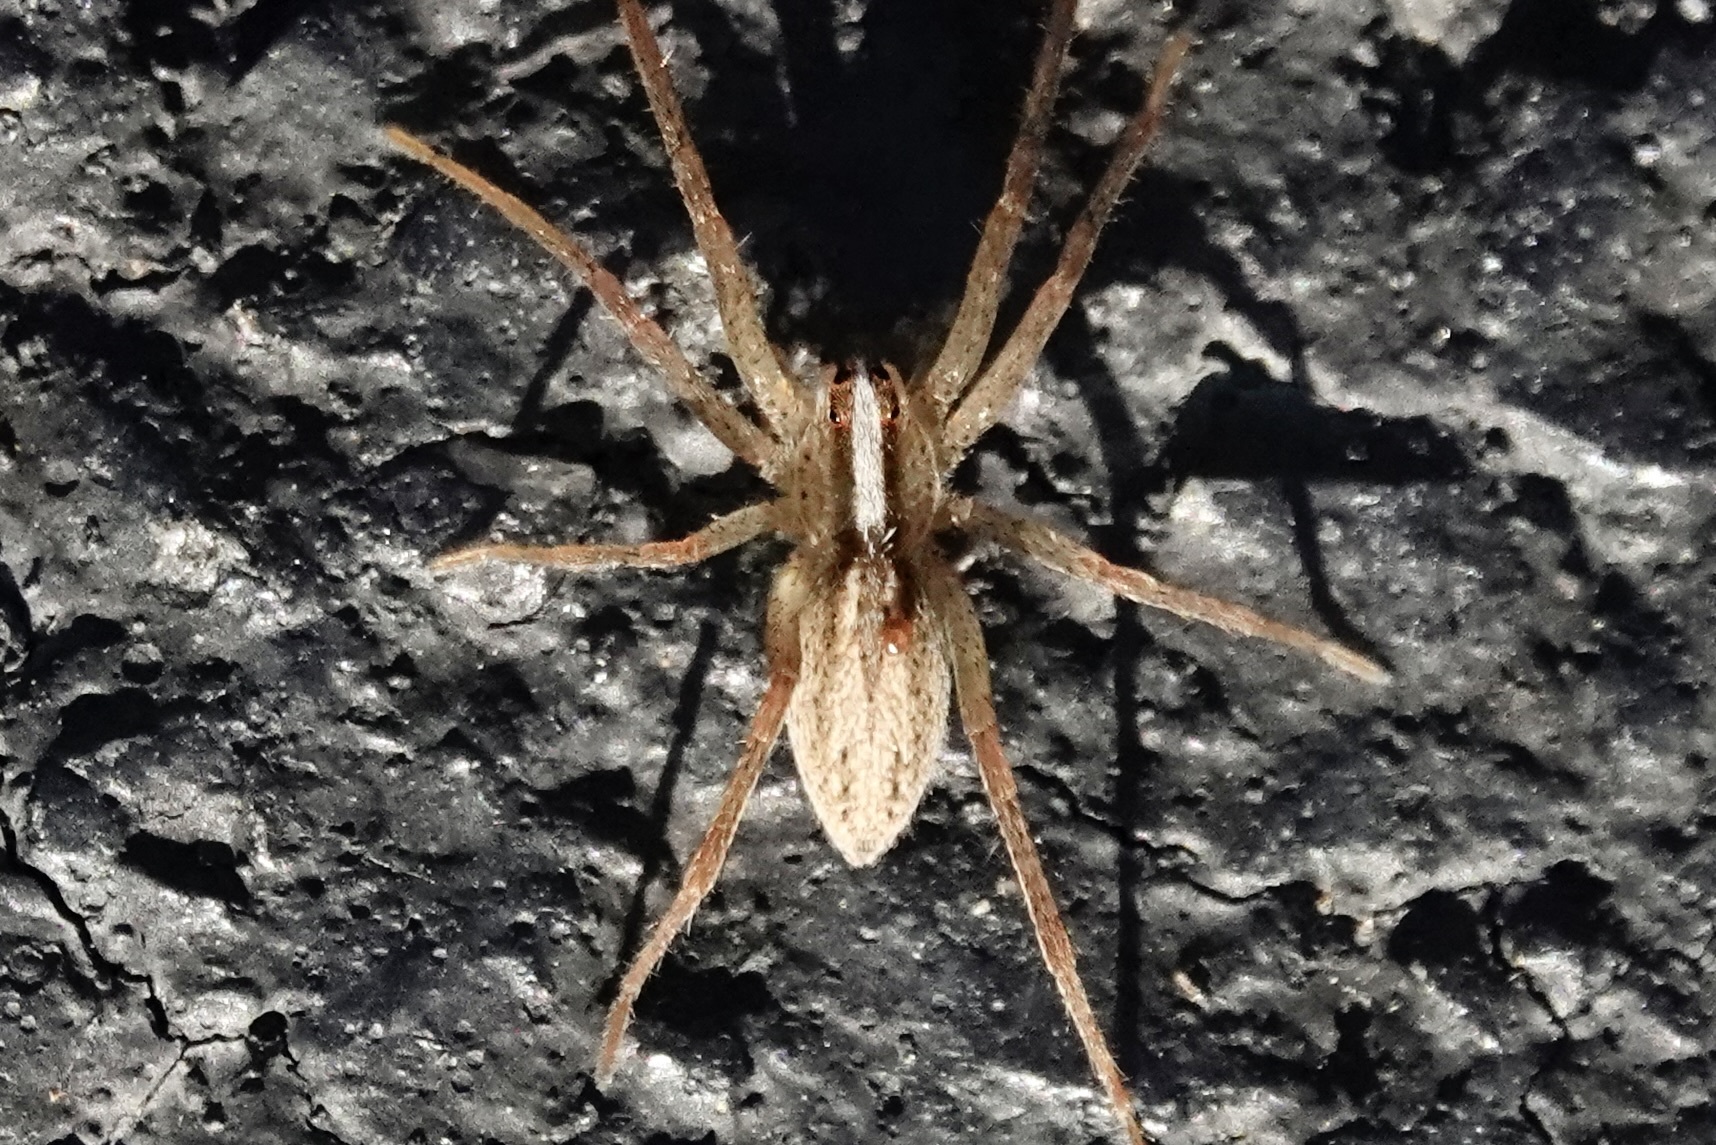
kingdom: Animalia
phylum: Arthropoda
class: Arachnida
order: Araneae
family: Lycosidae
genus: Rabidosa
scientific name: Rabidosa hentzi
